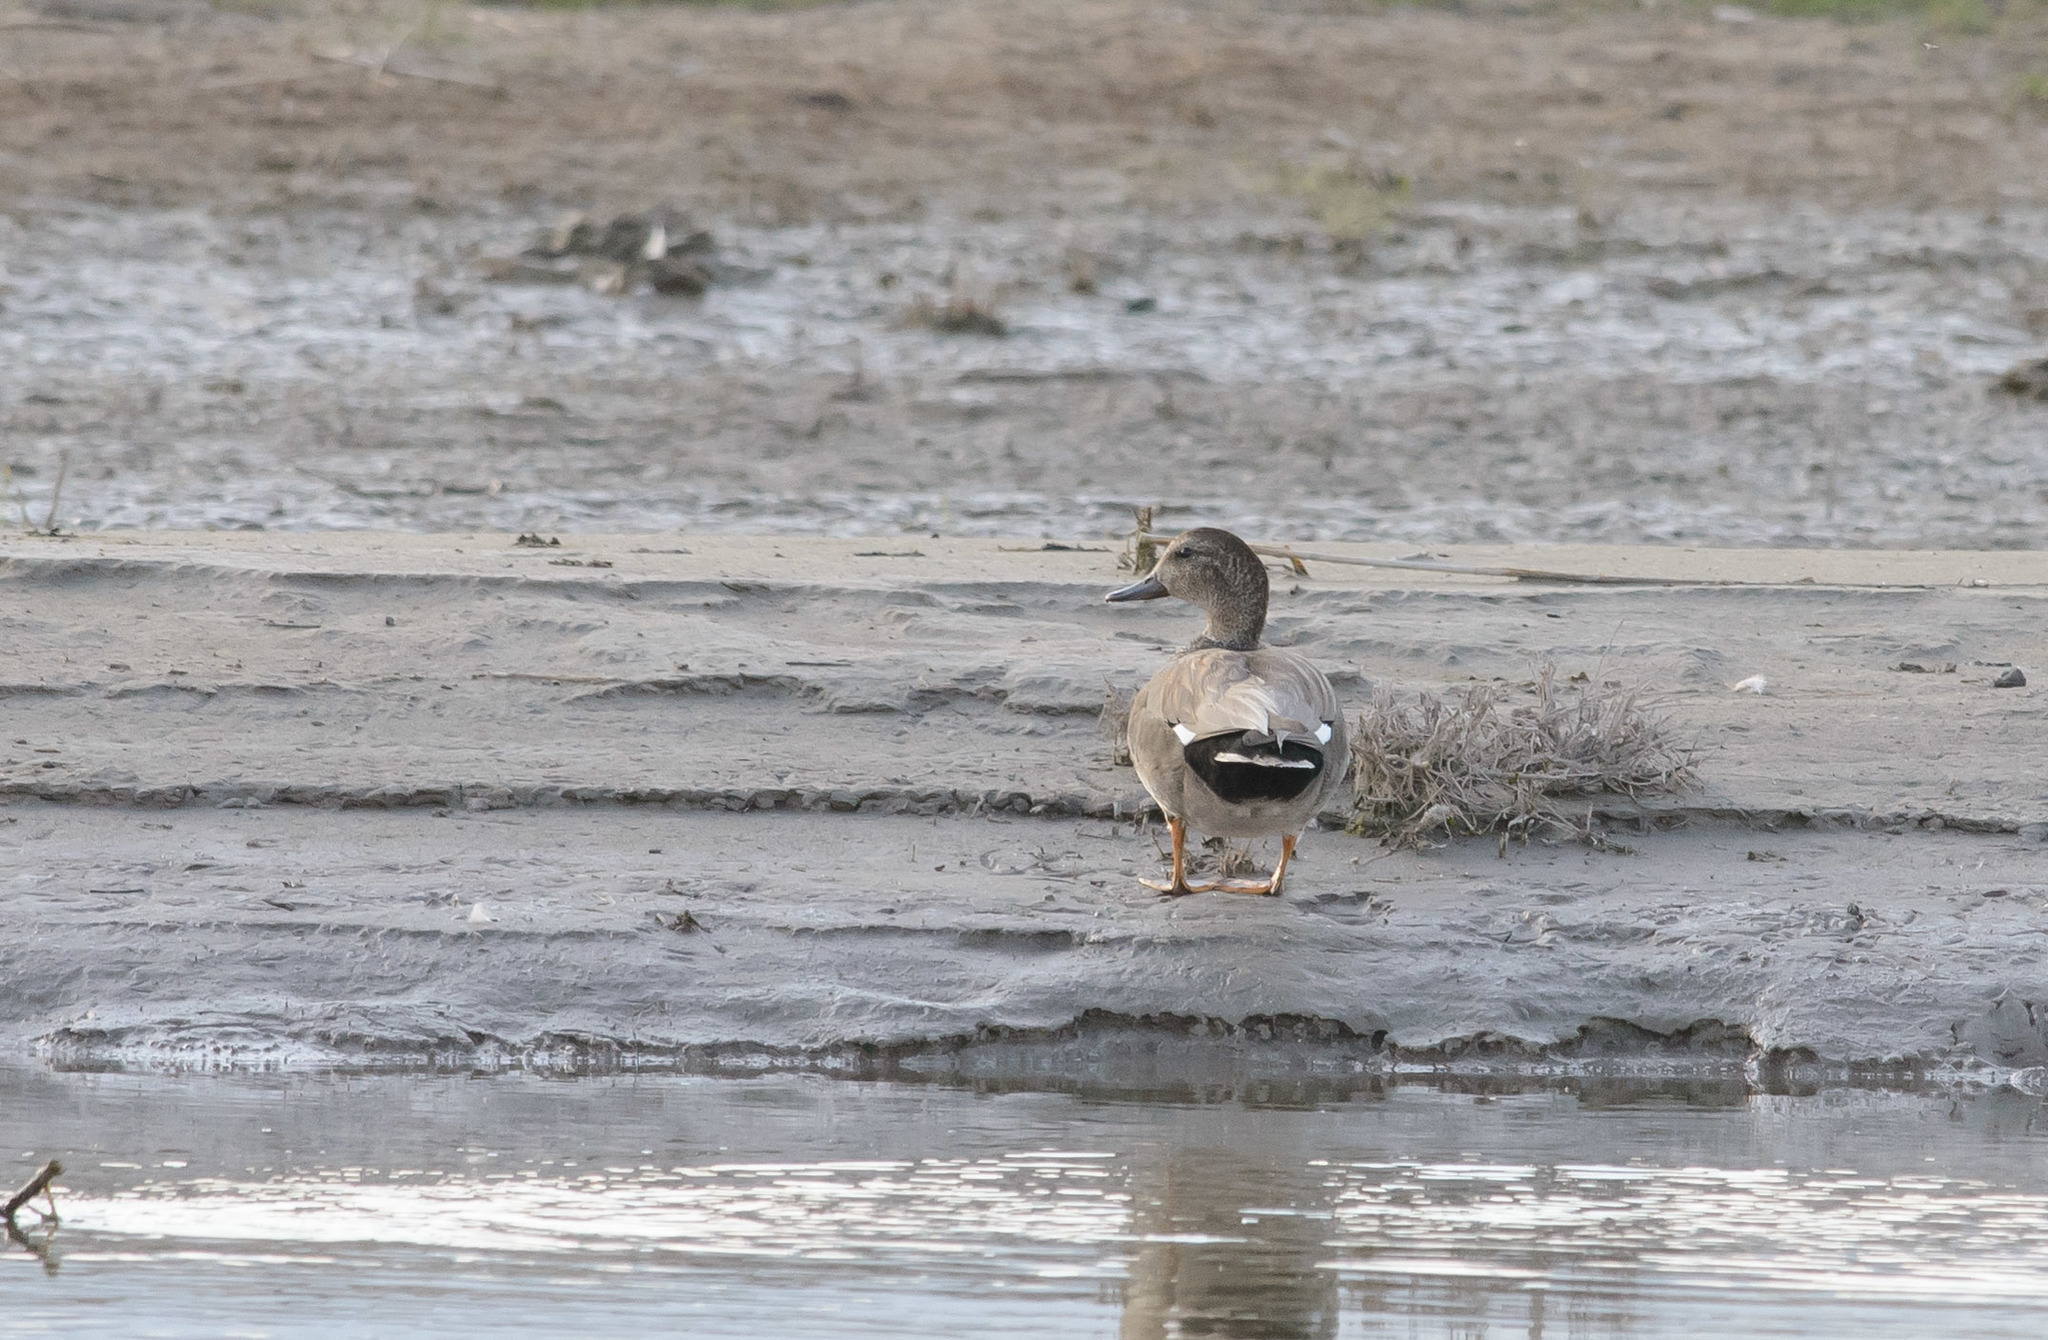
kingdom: Animalia
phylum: Chordata
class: Aves
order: Anseriformes
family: Anatidae
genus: Mareca
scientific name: Mareca strepera
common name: Gadwall
